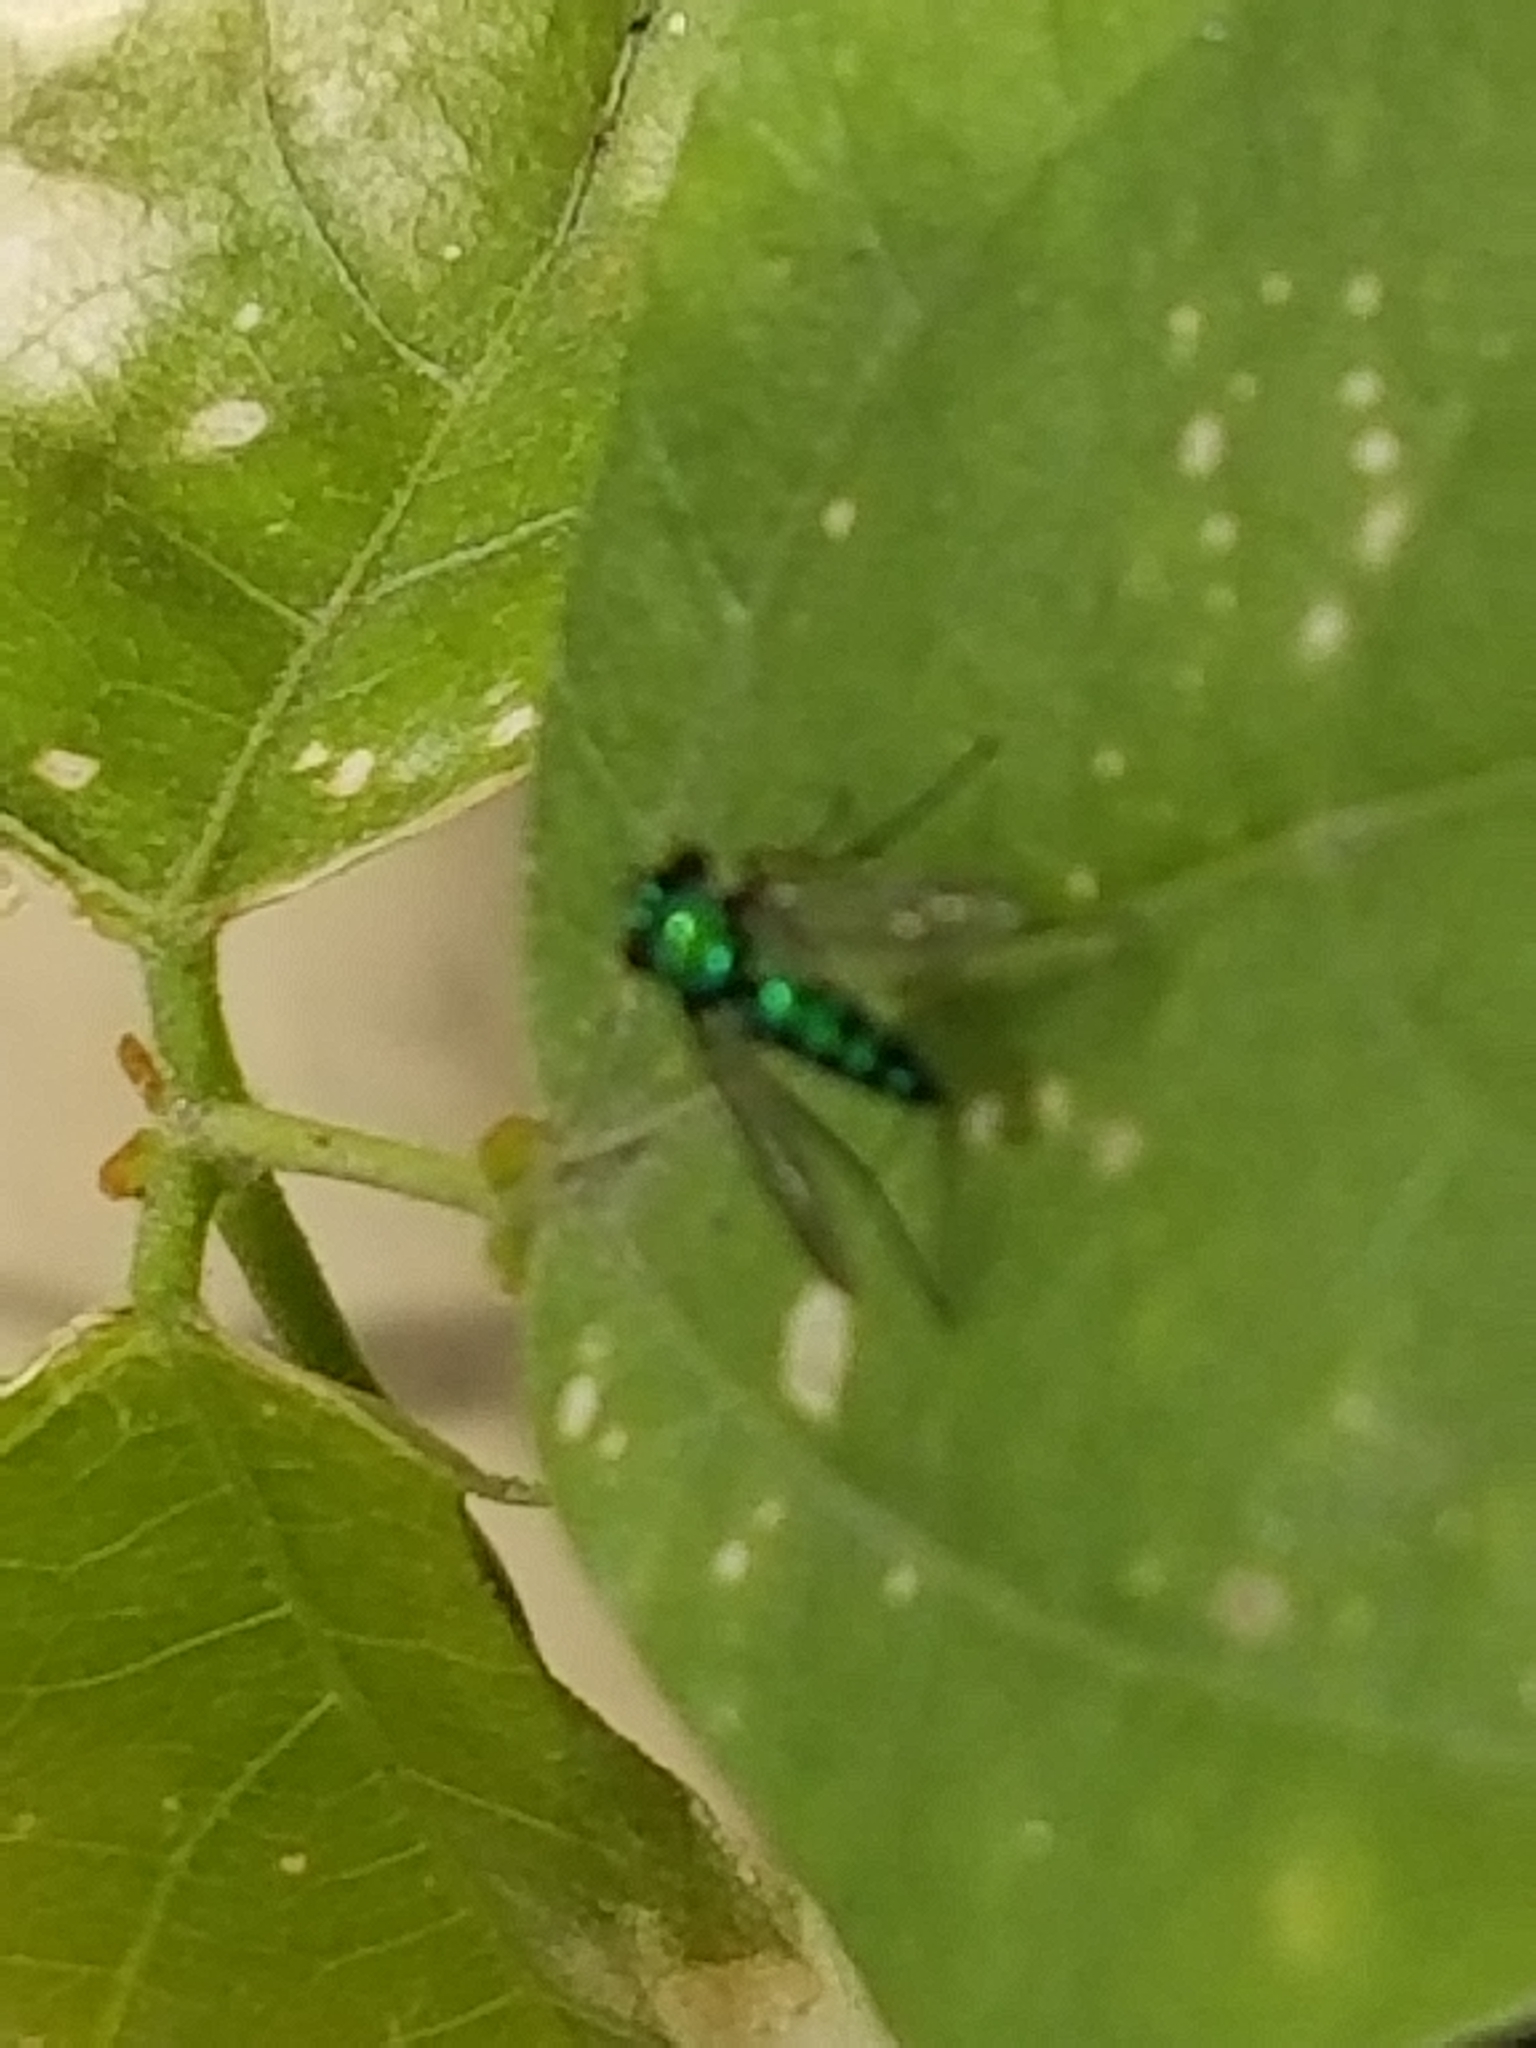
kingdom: Animalia
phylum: Arthropoda
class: Insecta
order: Diptera
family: Dolichopodidae
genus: Condylostylus
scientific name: Condylostylus longicornis
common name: Long-legged fly
